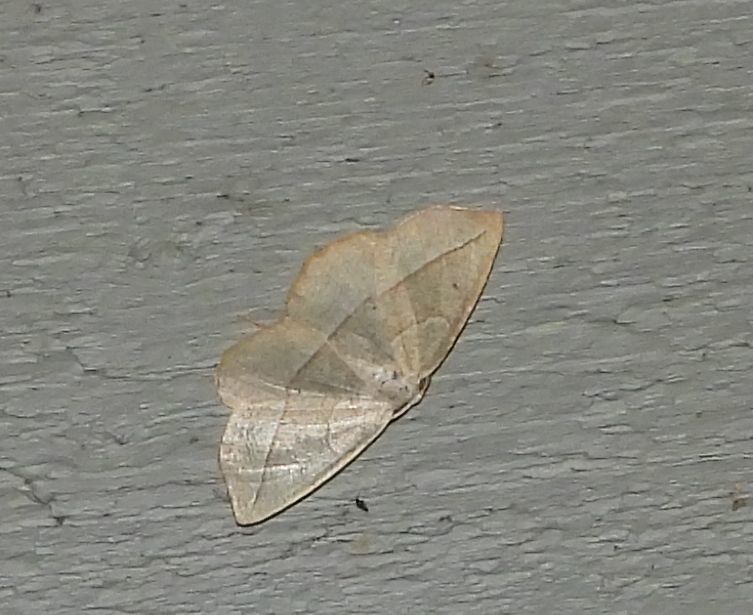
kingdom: Animalia
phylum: Arthropoda
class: Insecta
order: Lepidoptera
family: Geometridae
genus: Eusarca
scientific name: Eusarca confusaria
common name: Confused eusarca
